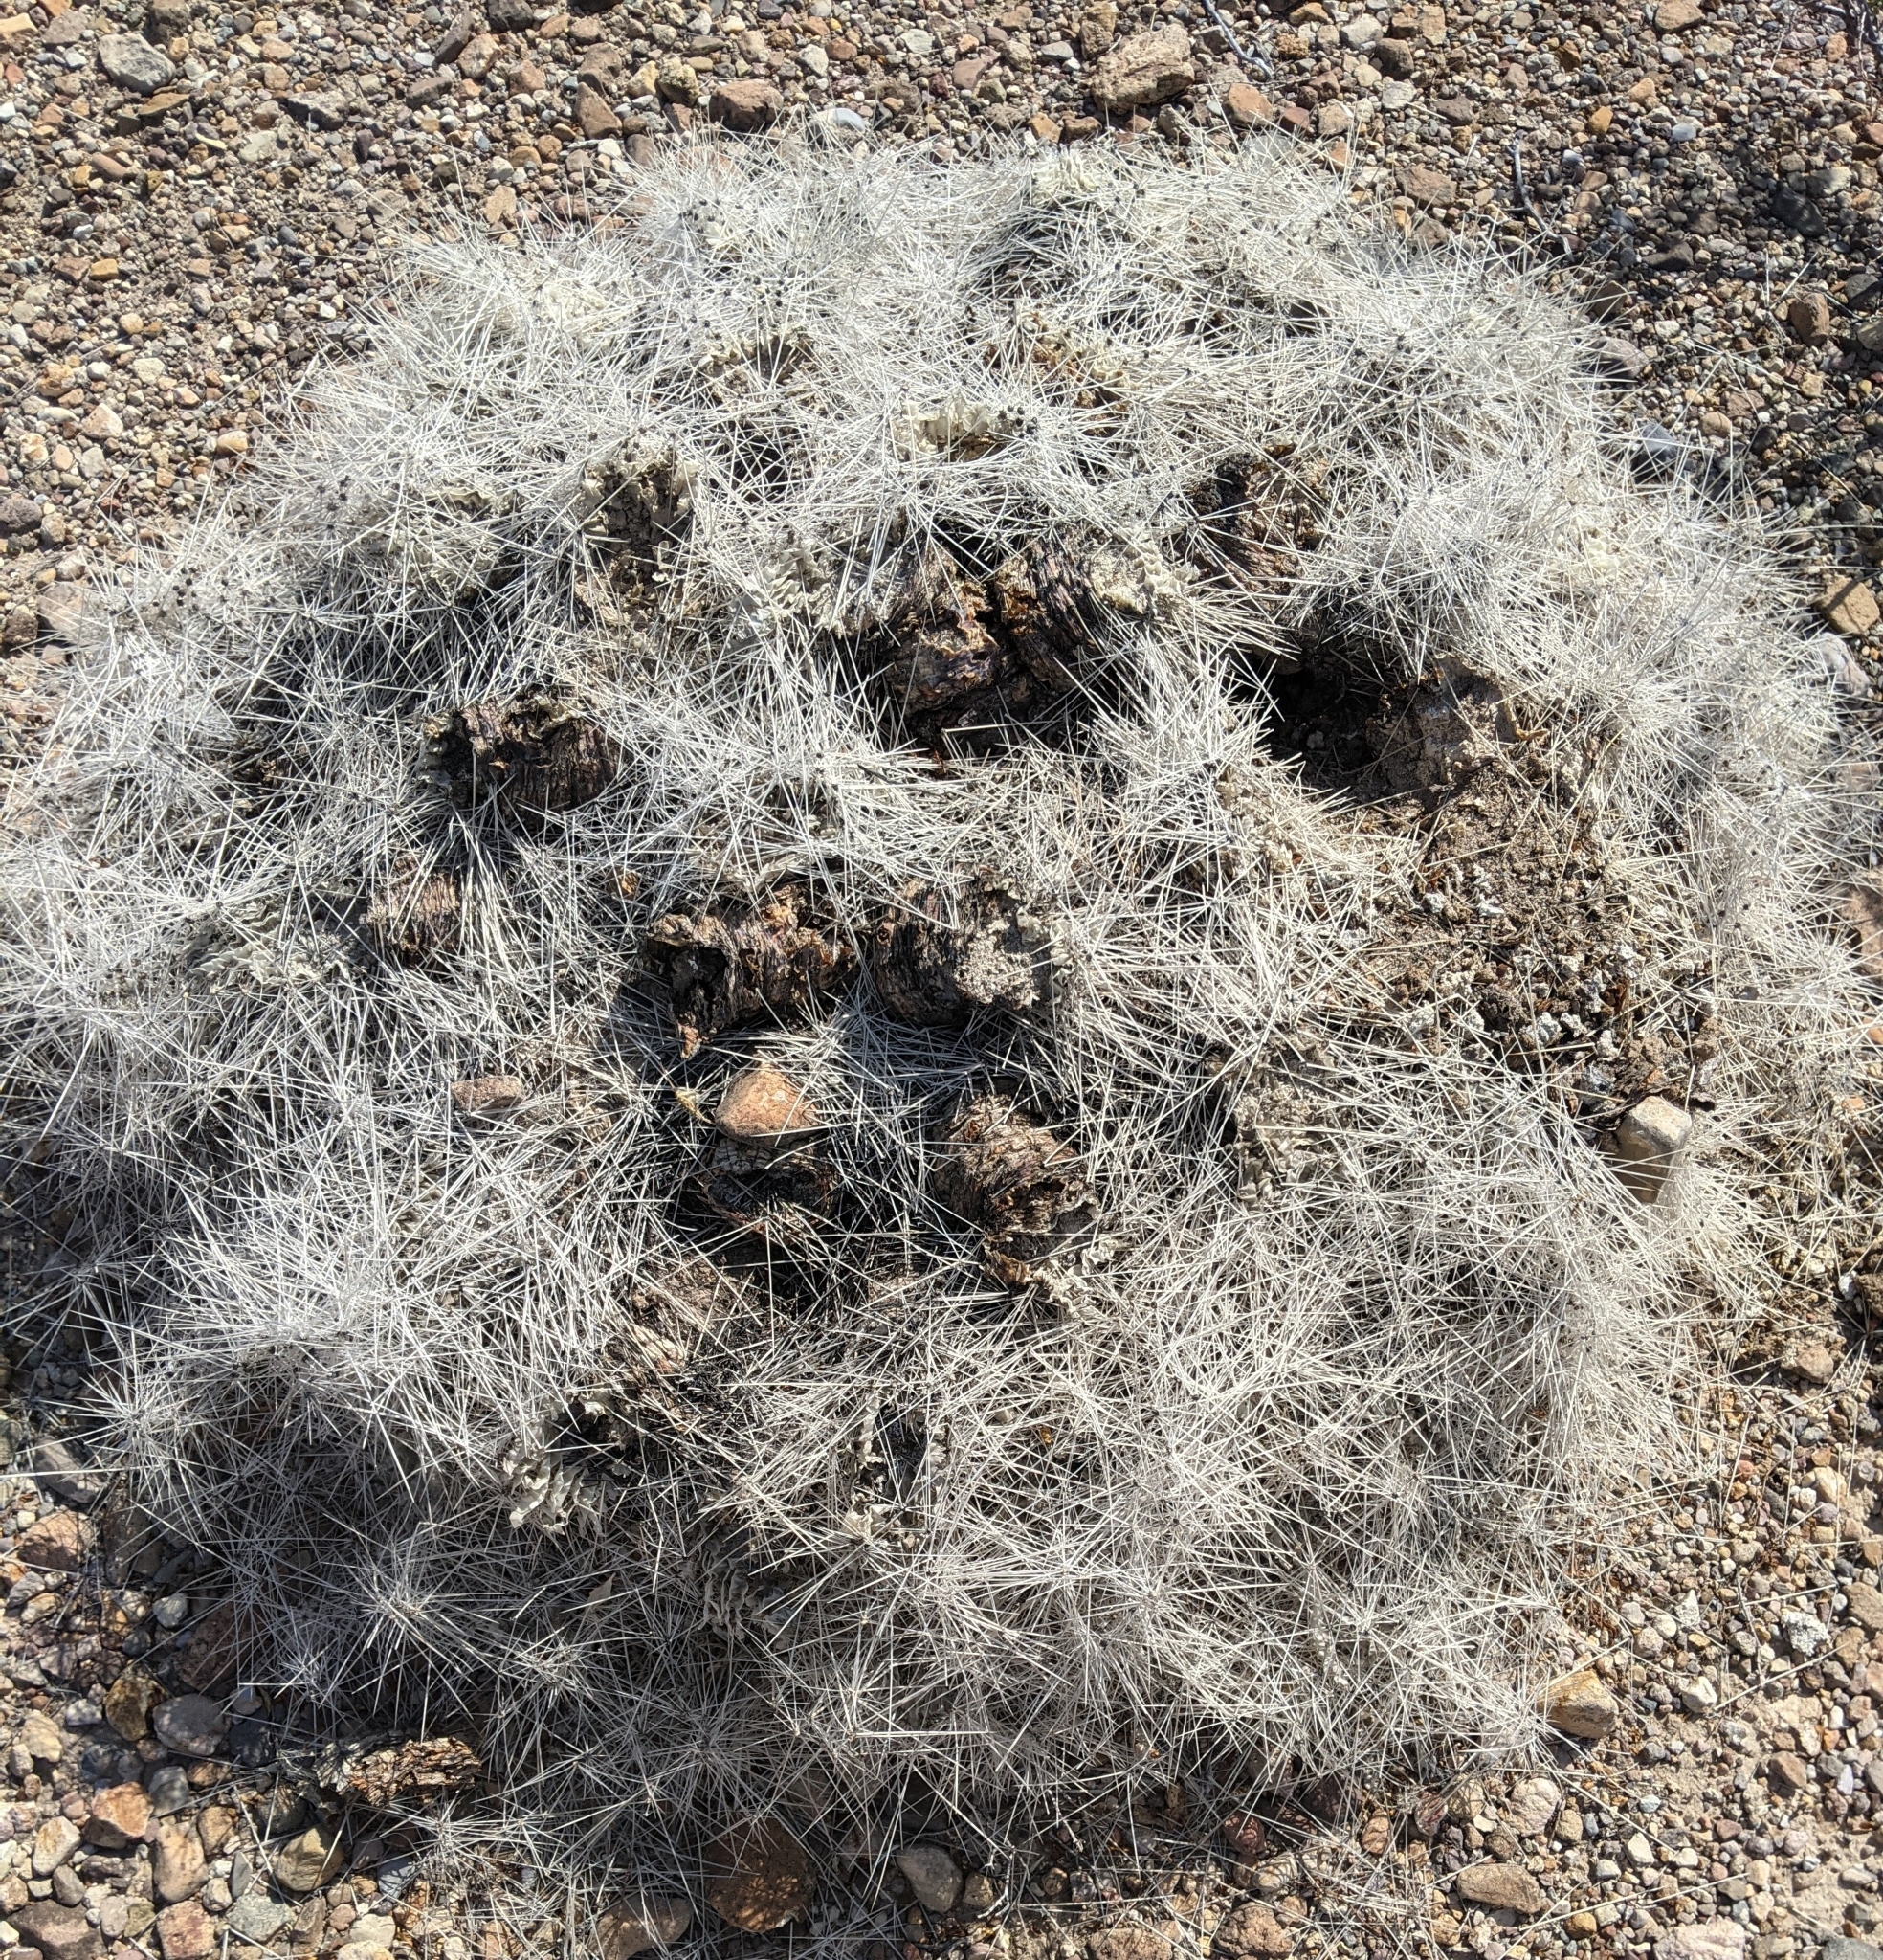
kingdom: Plantae
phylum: Tracheophyta
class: Magnoliopsida
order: Caryophyllales
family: Cactaceae
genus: Echinocereus
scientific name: Echinocereus stramineus
